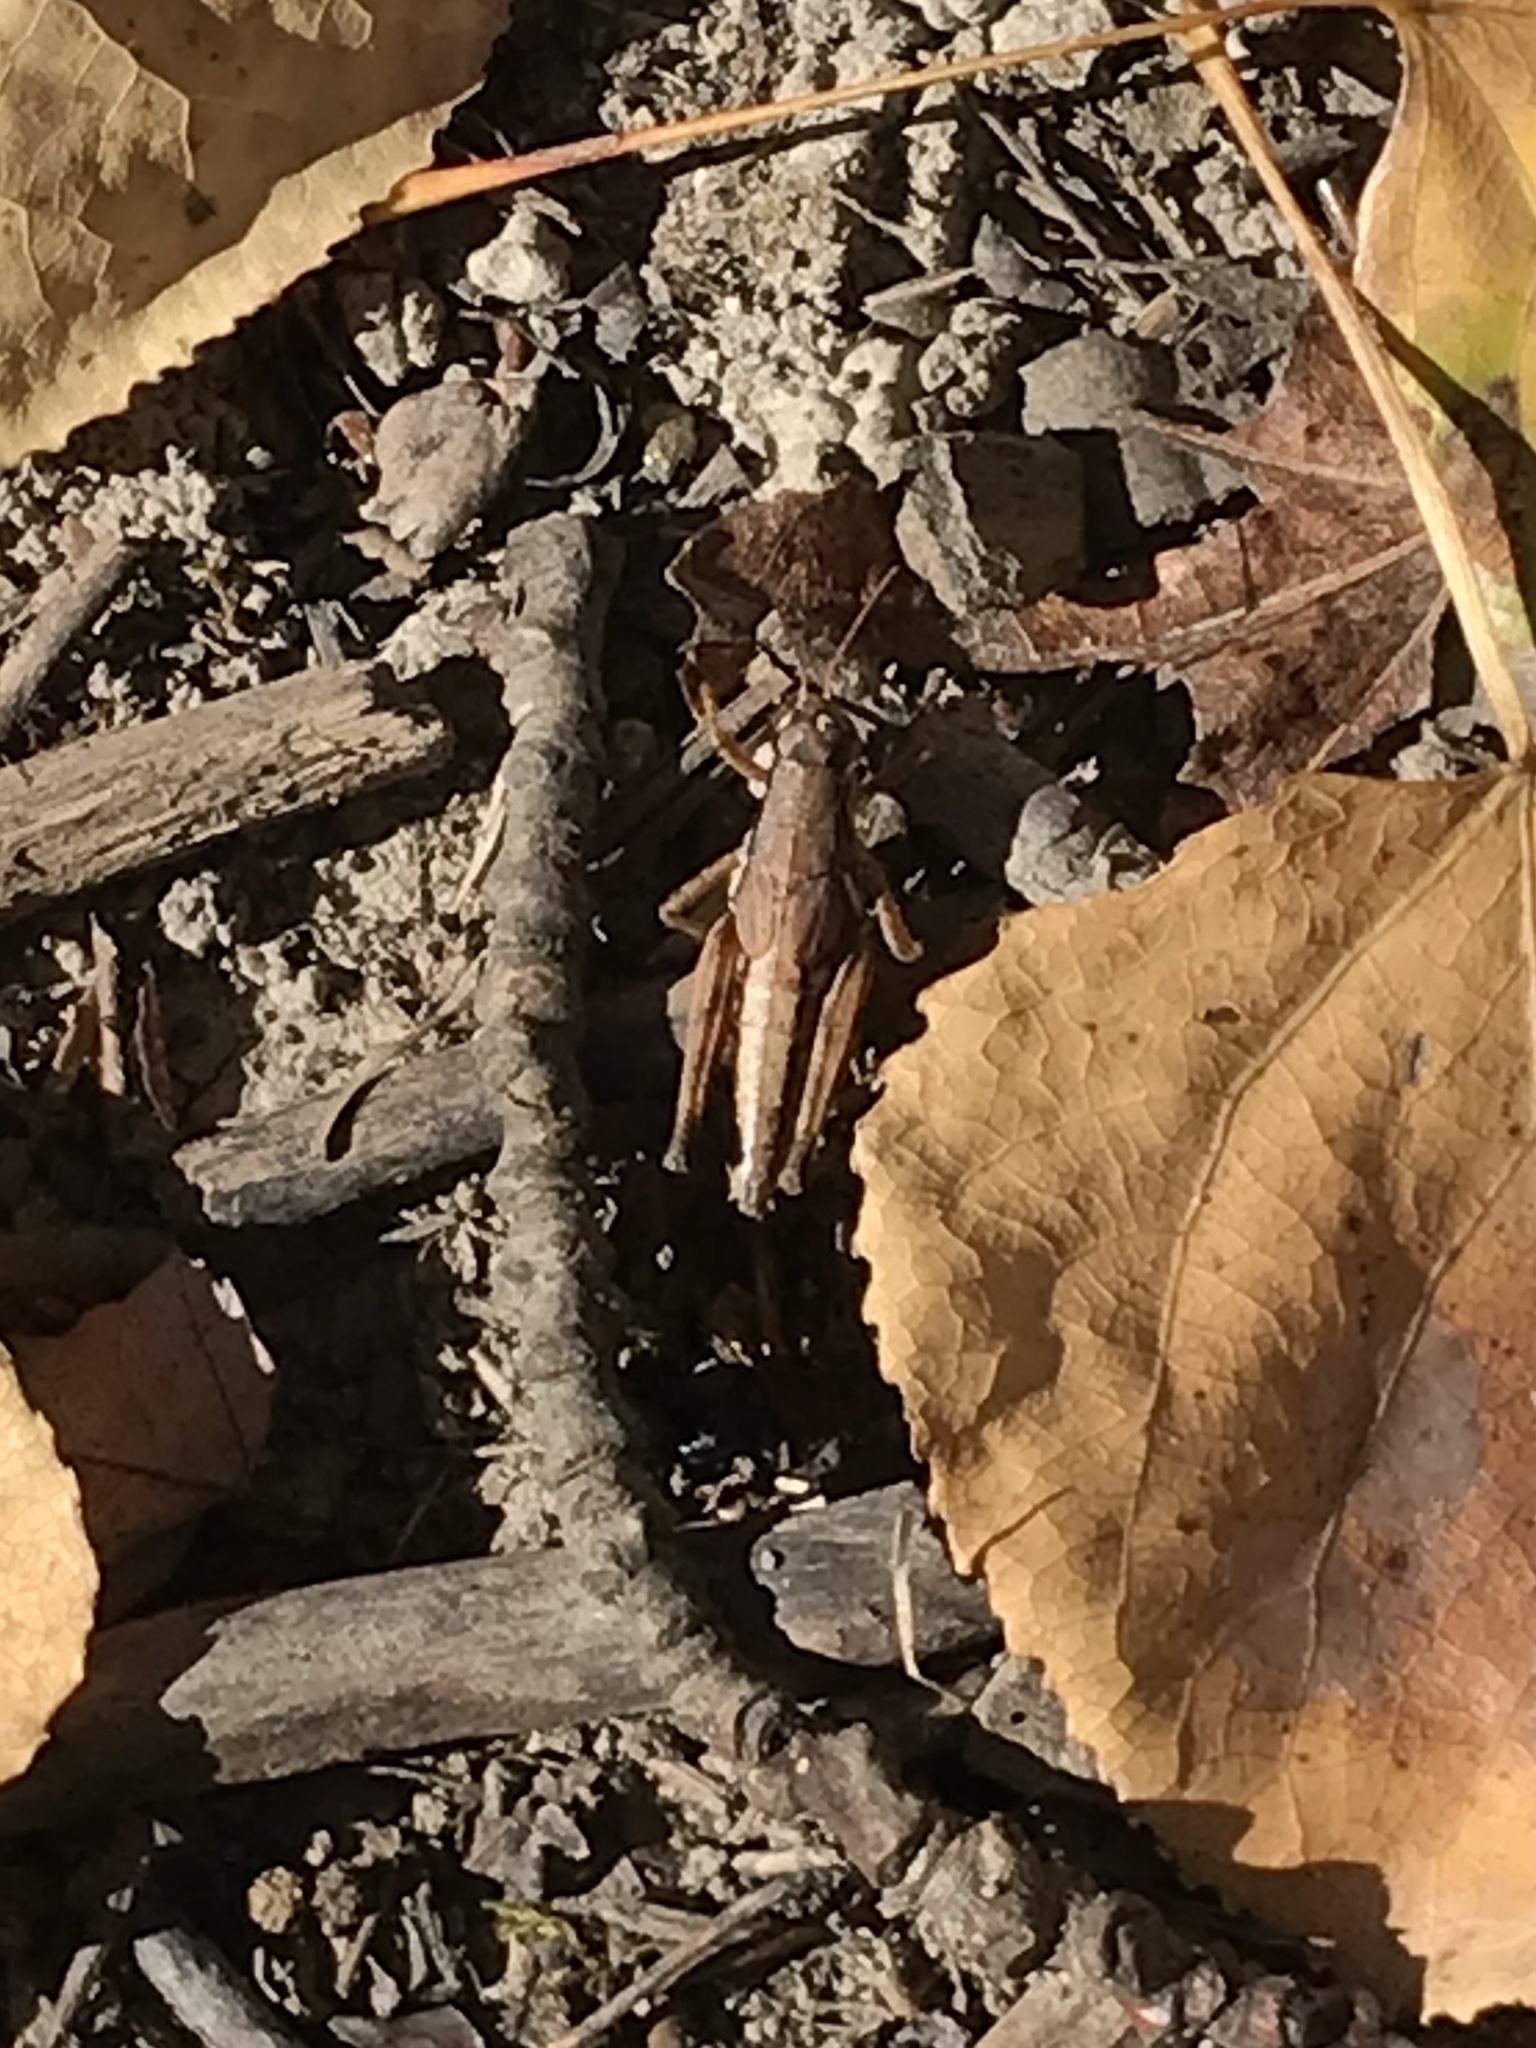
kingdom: Animalia
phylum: Arthropoda
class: Insecta
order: Orthoptera
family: Acrididae
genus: Melanoplus
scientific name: Melanoplus islandicus
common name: Island locust
